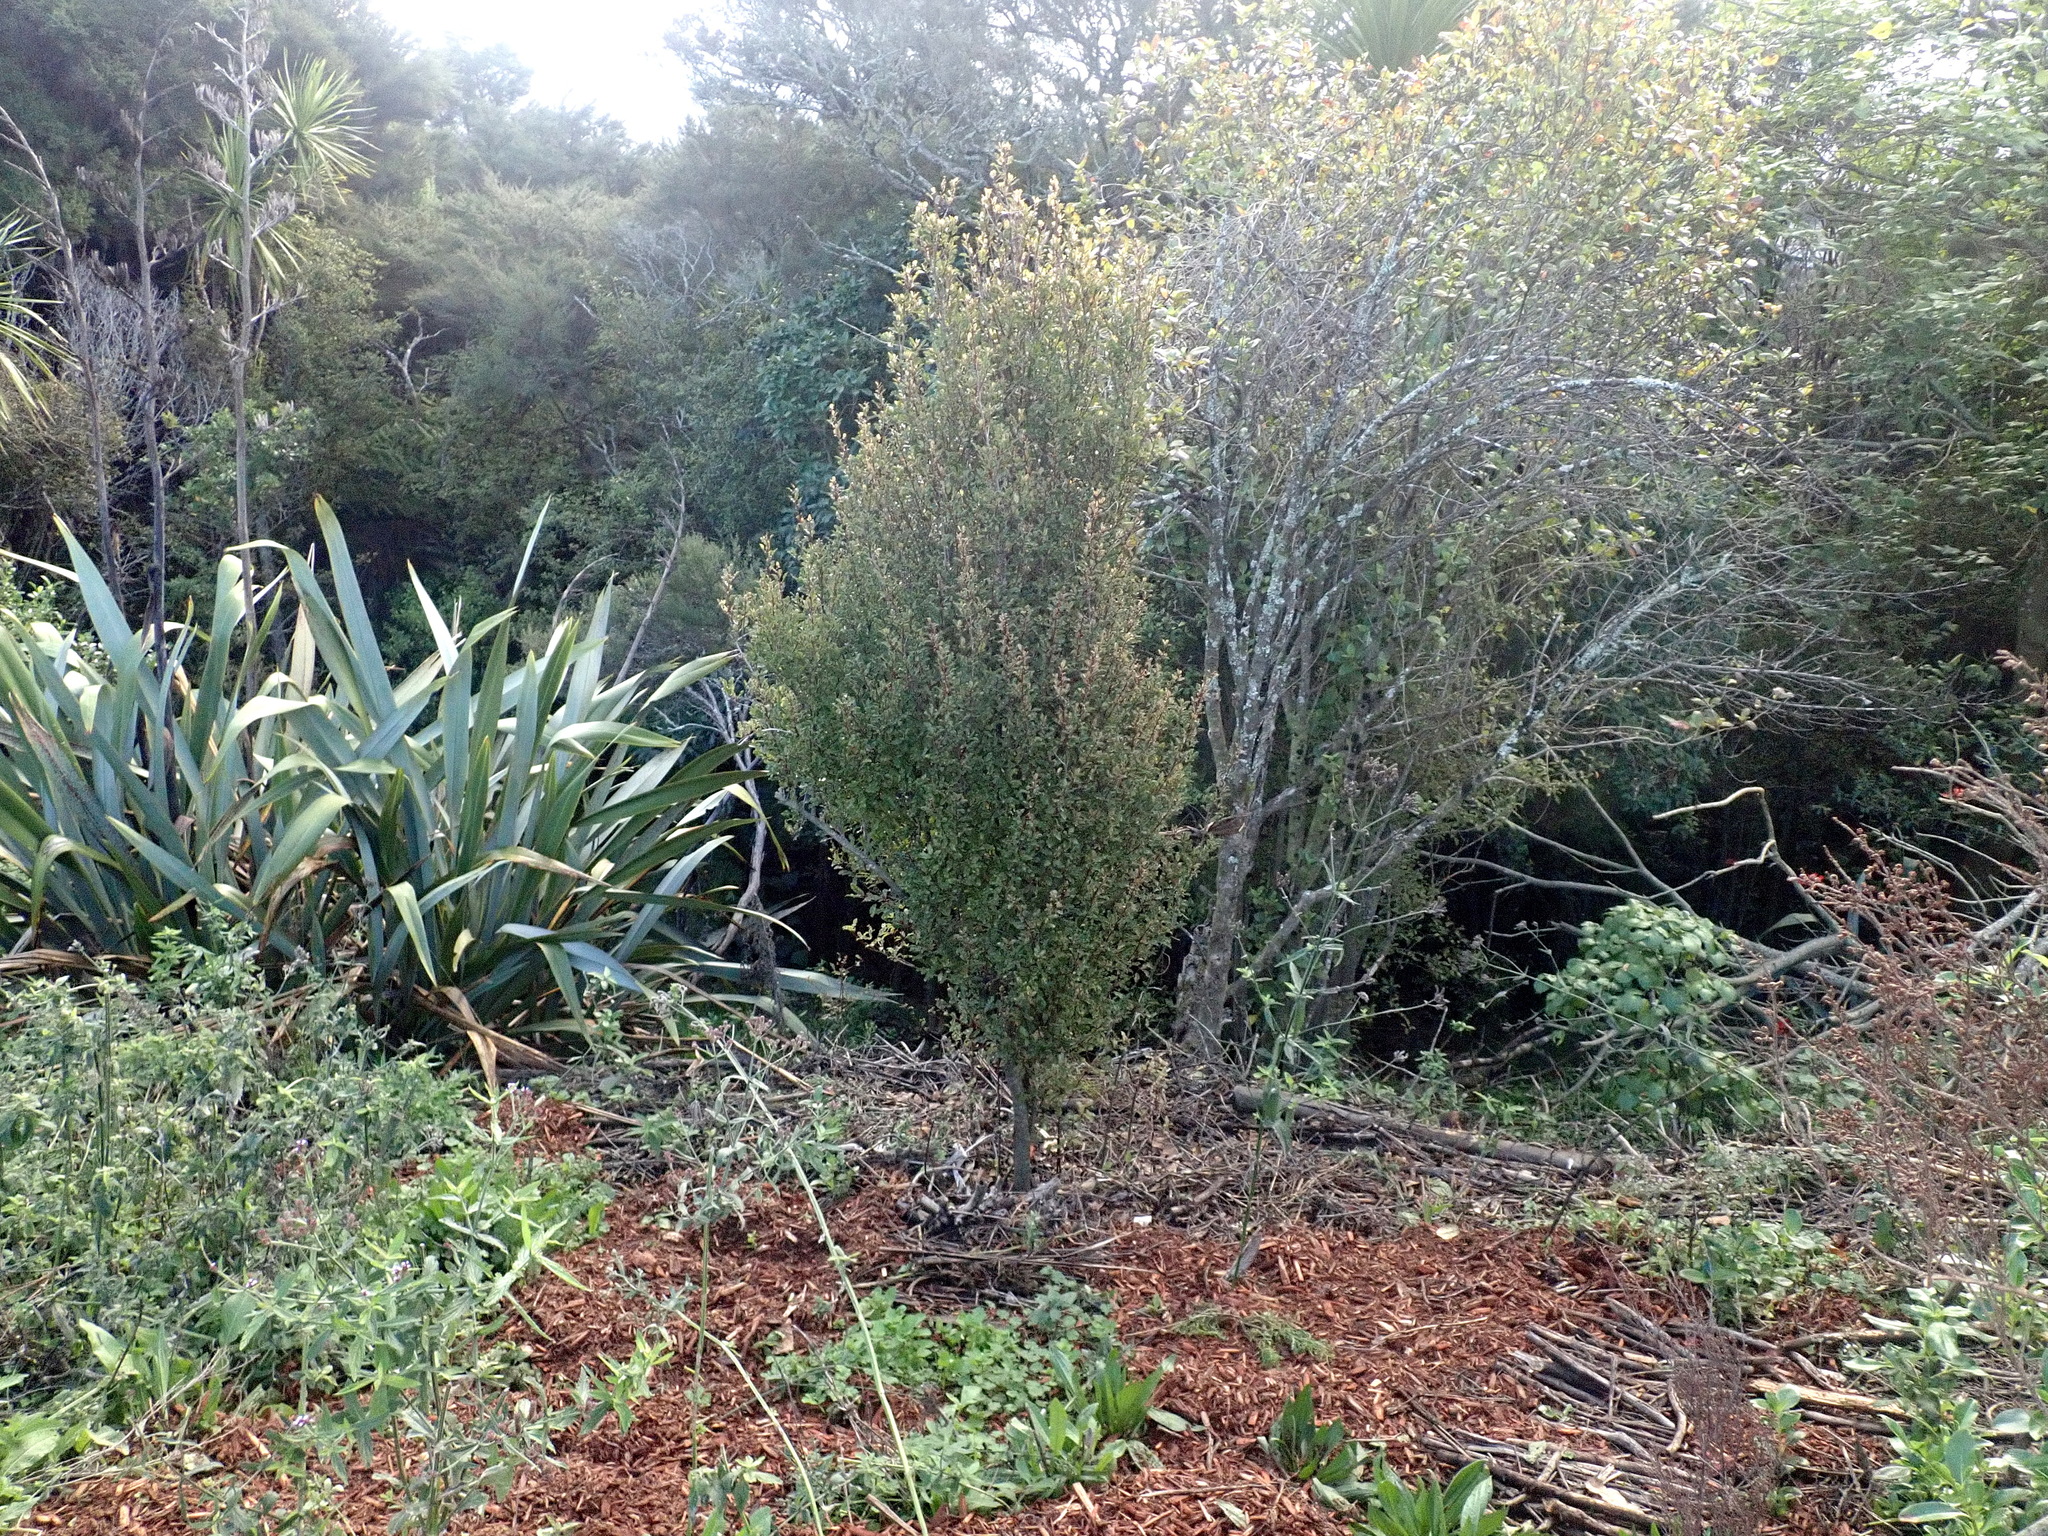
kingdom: Plantae
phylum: Tracheophyta
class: Magnoliopsida
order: Ericales
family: Primulaceae
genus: Myrsine
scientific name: Myrsine australis
